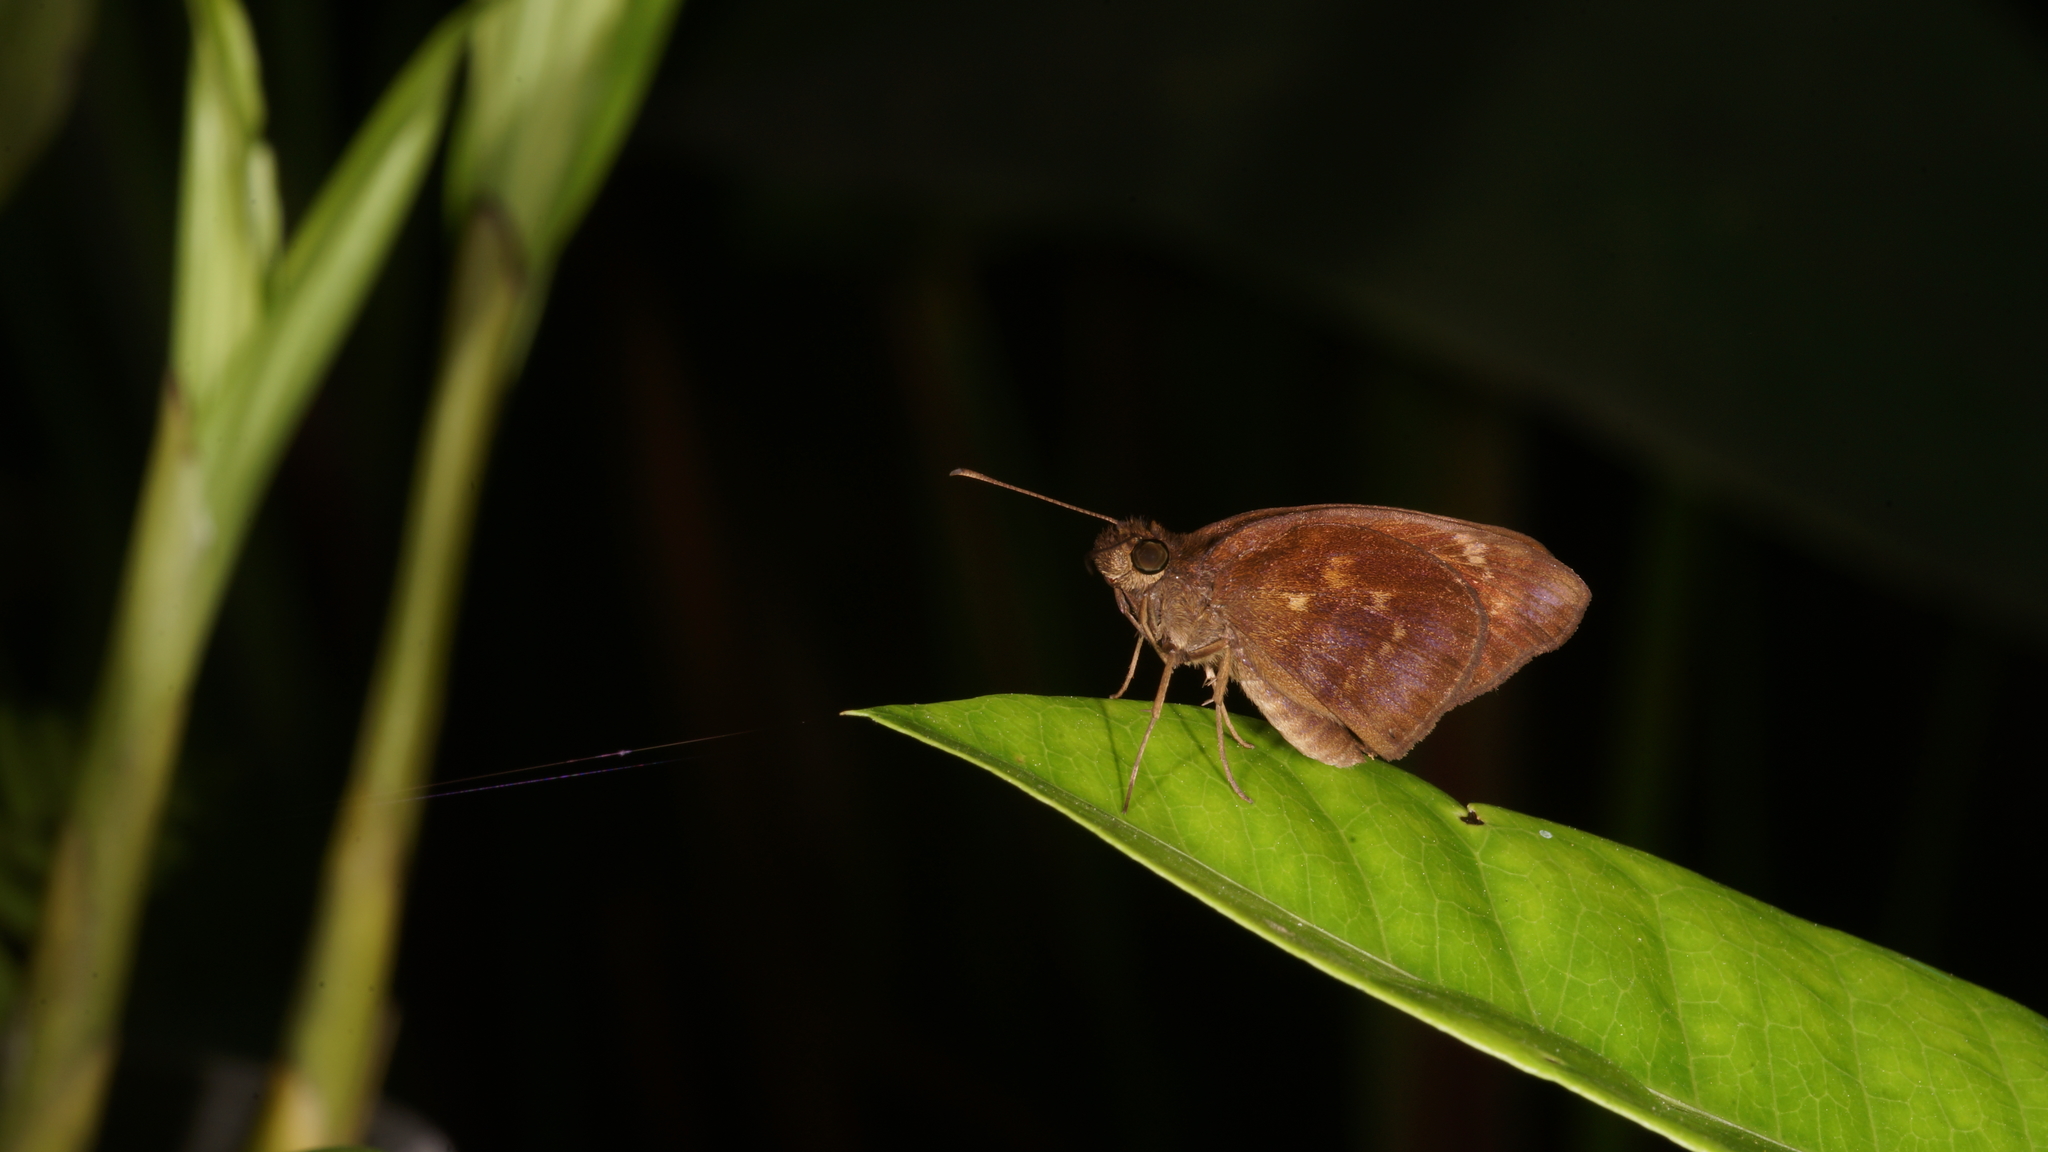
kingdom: Animalia
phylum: Arthropoda
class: Insecta
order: Lepidoptera
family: Hesperiidae
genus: Psolos
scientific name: Psolos fuligo
